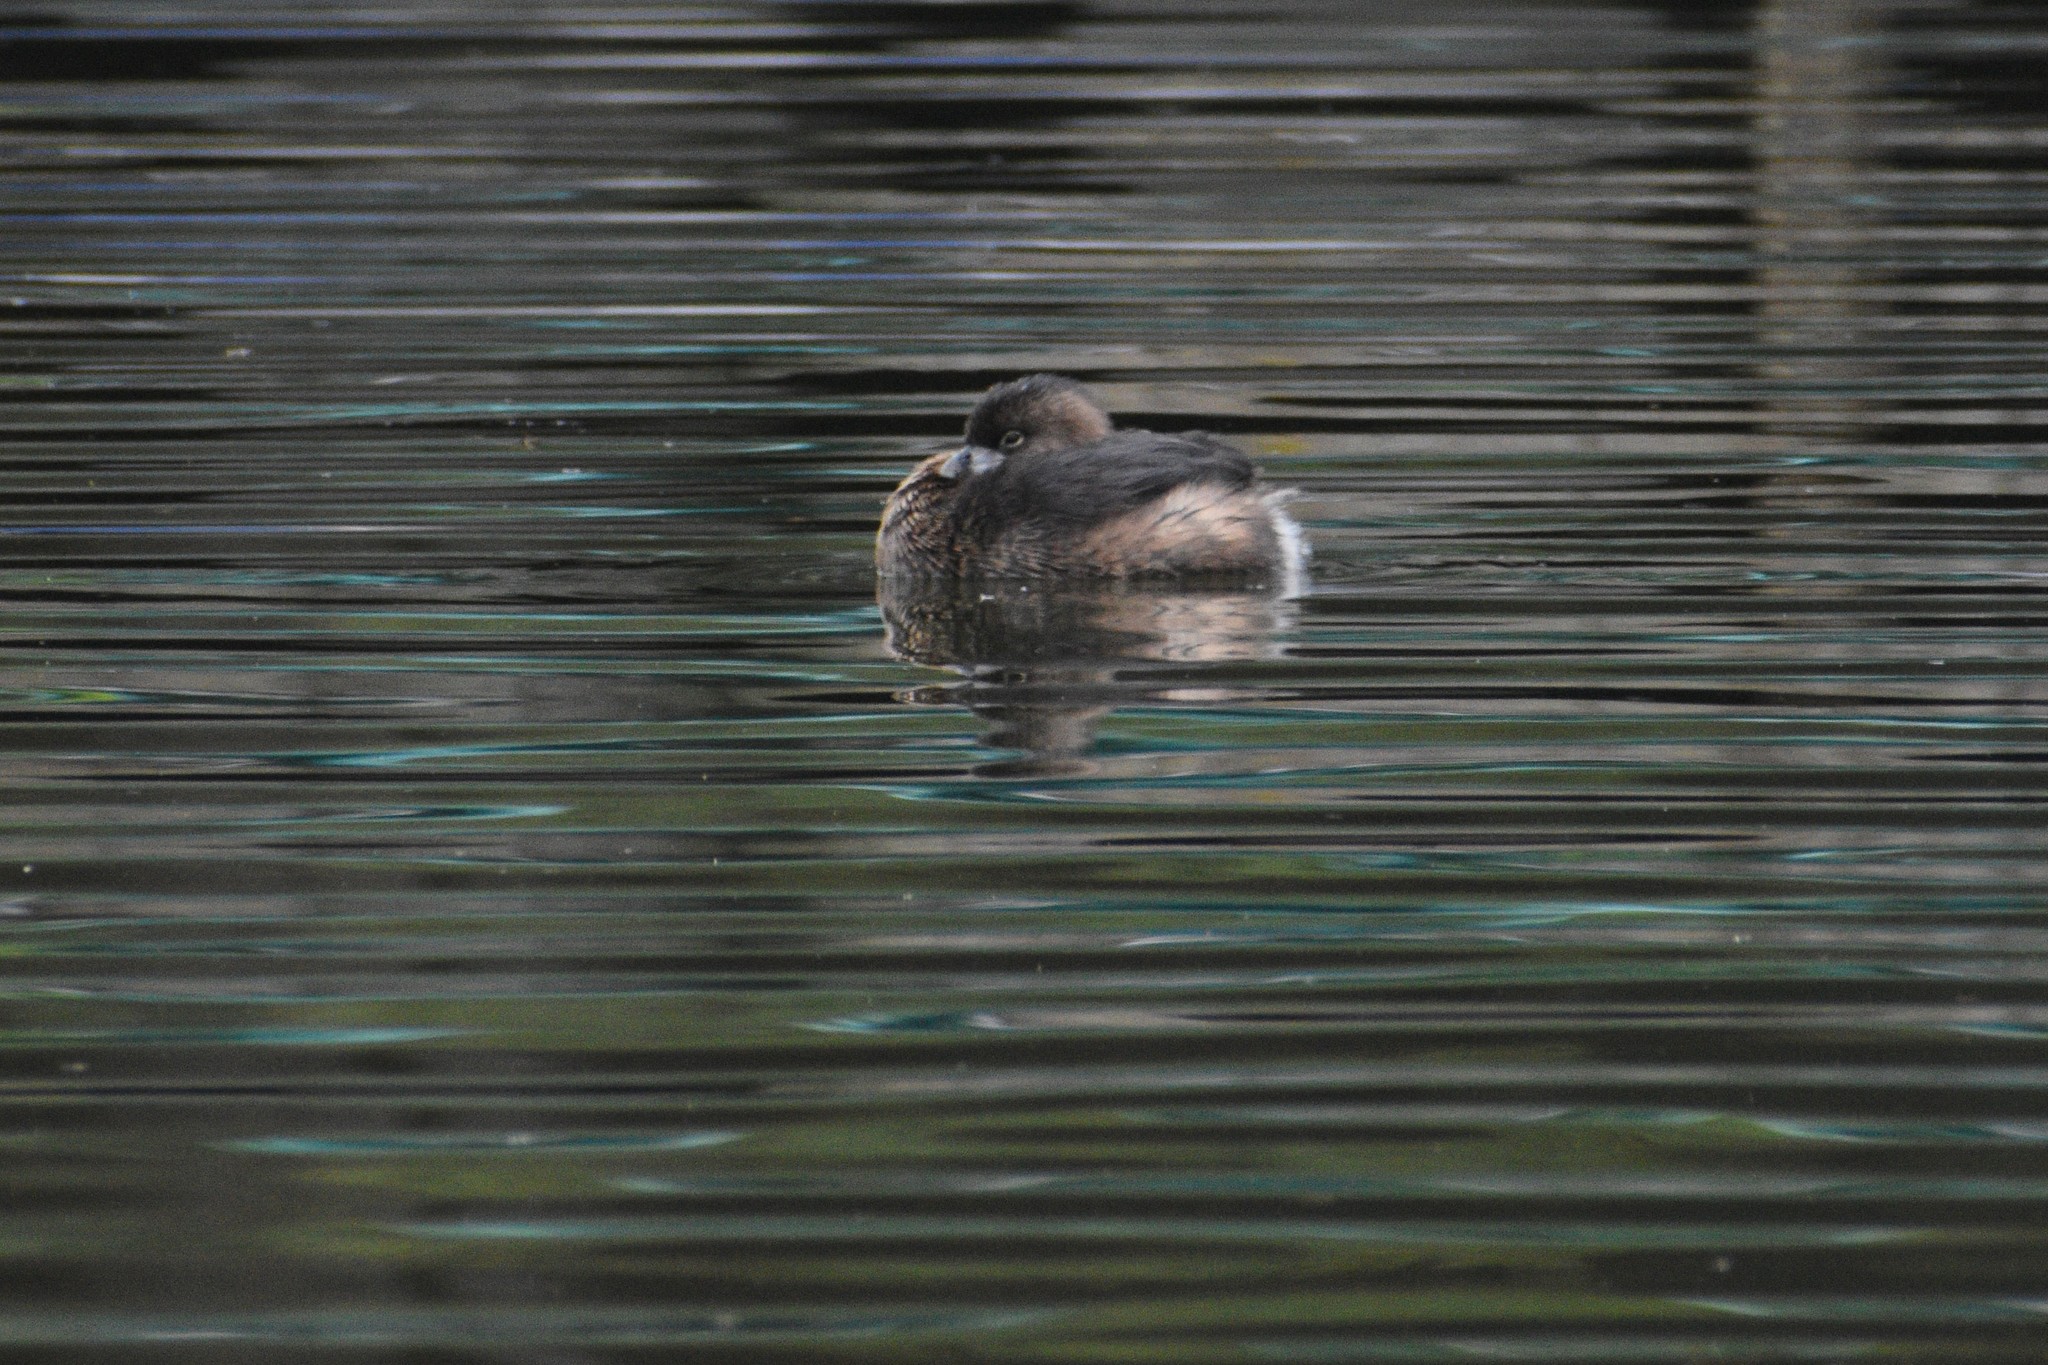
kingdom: Animalia
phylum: Chordata
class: Aves
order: Podicipediformes
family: Podicipedidae
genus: Podilymbus
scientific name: Podilymbus podiceps
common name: Pied-billed grebe
